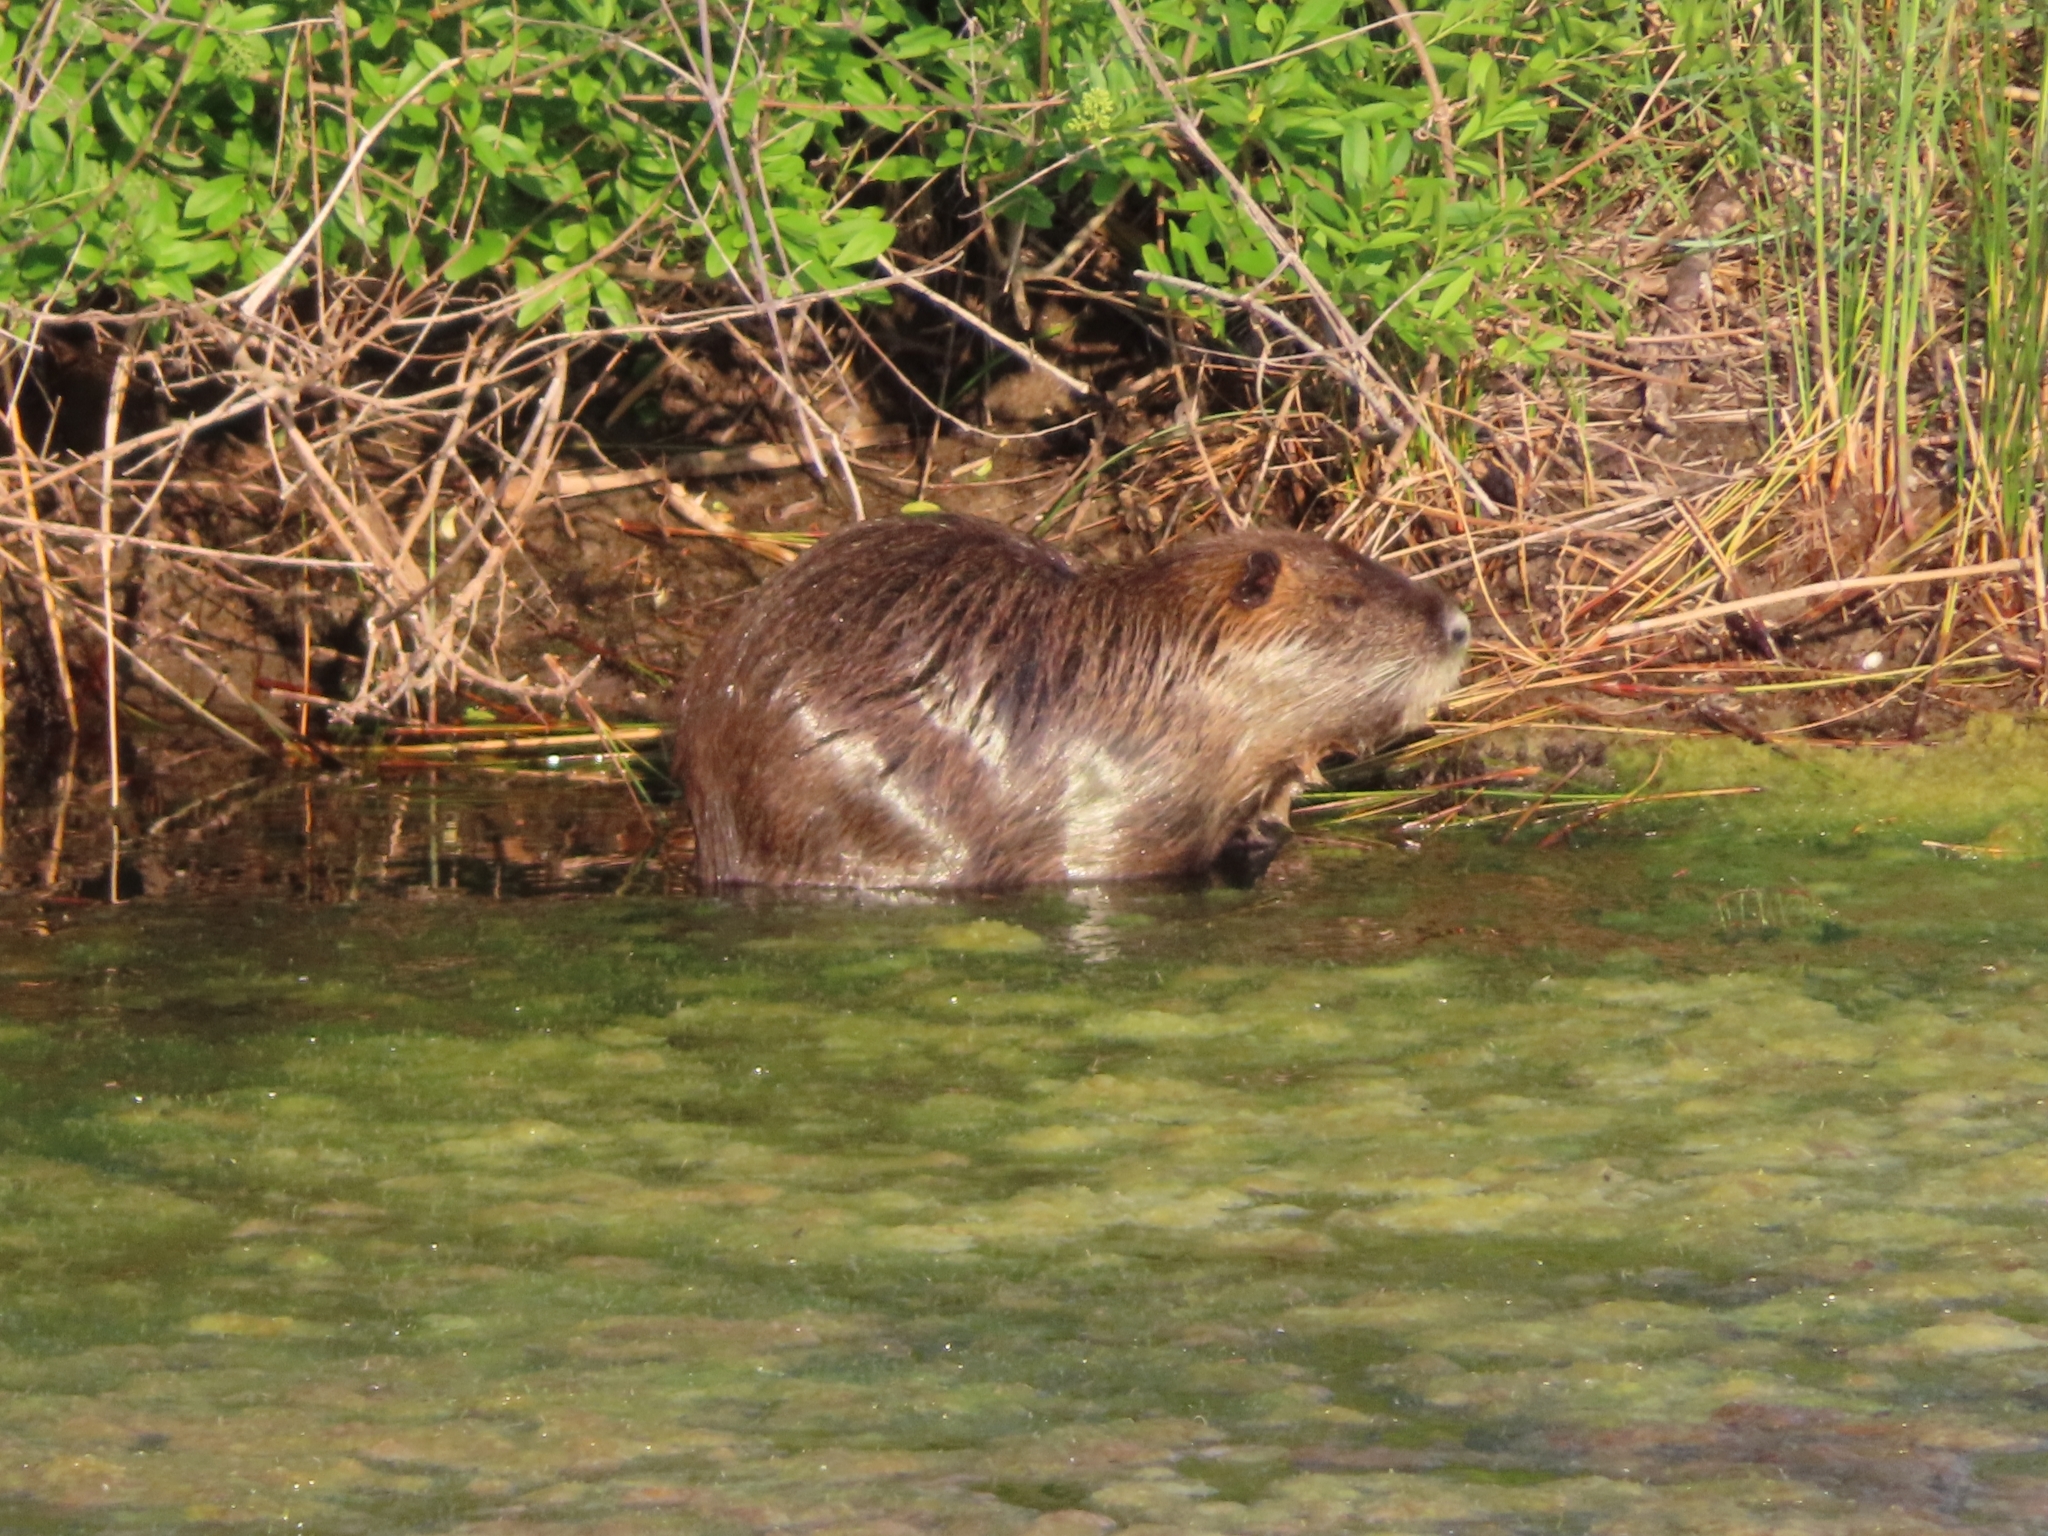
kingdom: Animalia
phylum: Chordata
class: Mammalia
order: Rodentia
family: Myocastoridae
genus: Myocastor
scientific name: Myocastor coypus
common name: Coypu
